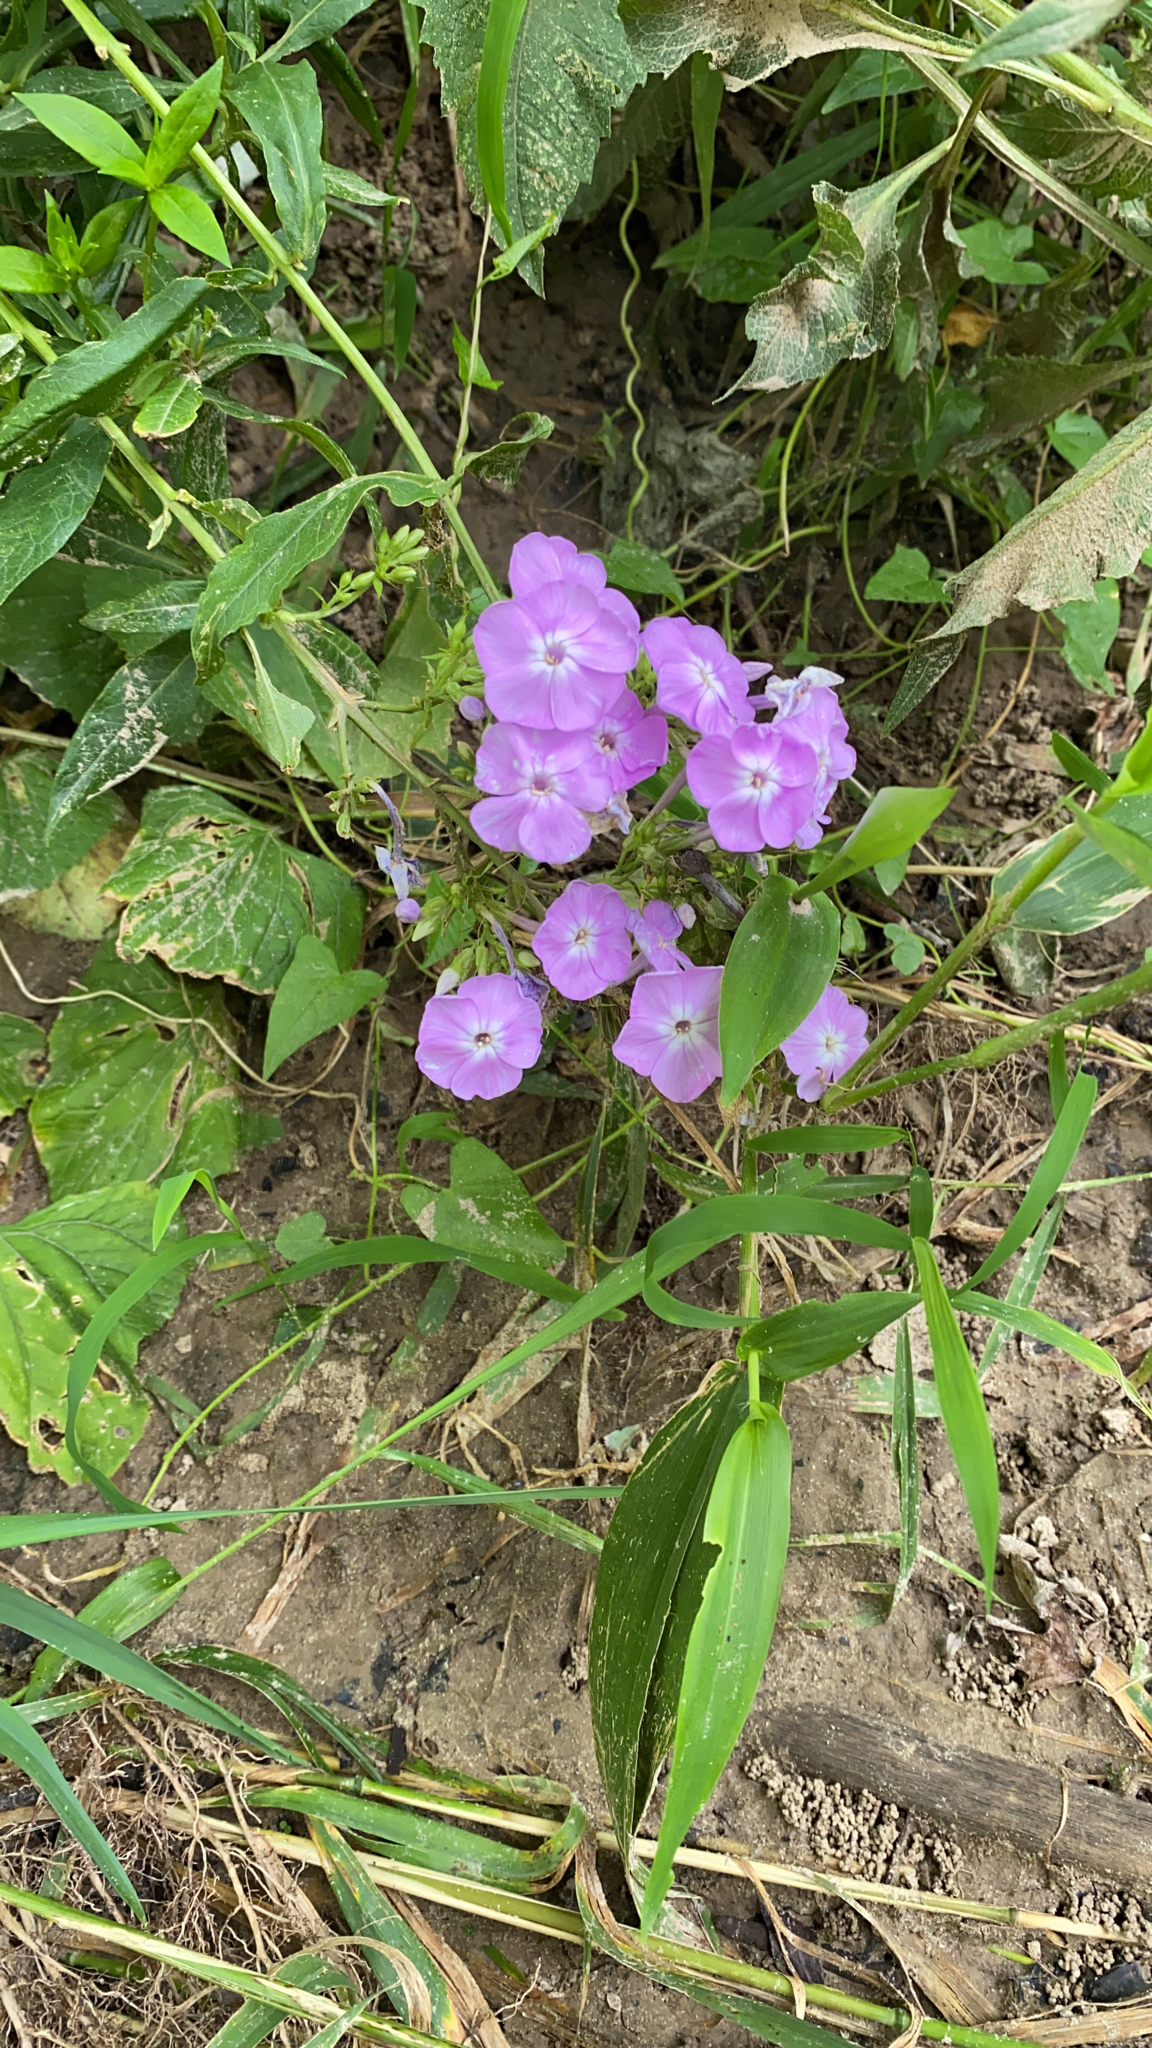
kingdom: Plantae
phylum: Tracheophyta
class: Magnoliopsida
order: Ericales
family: Polemoniaceae
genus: Phlox
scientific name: Phlox paniculata
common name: Fall phlox
